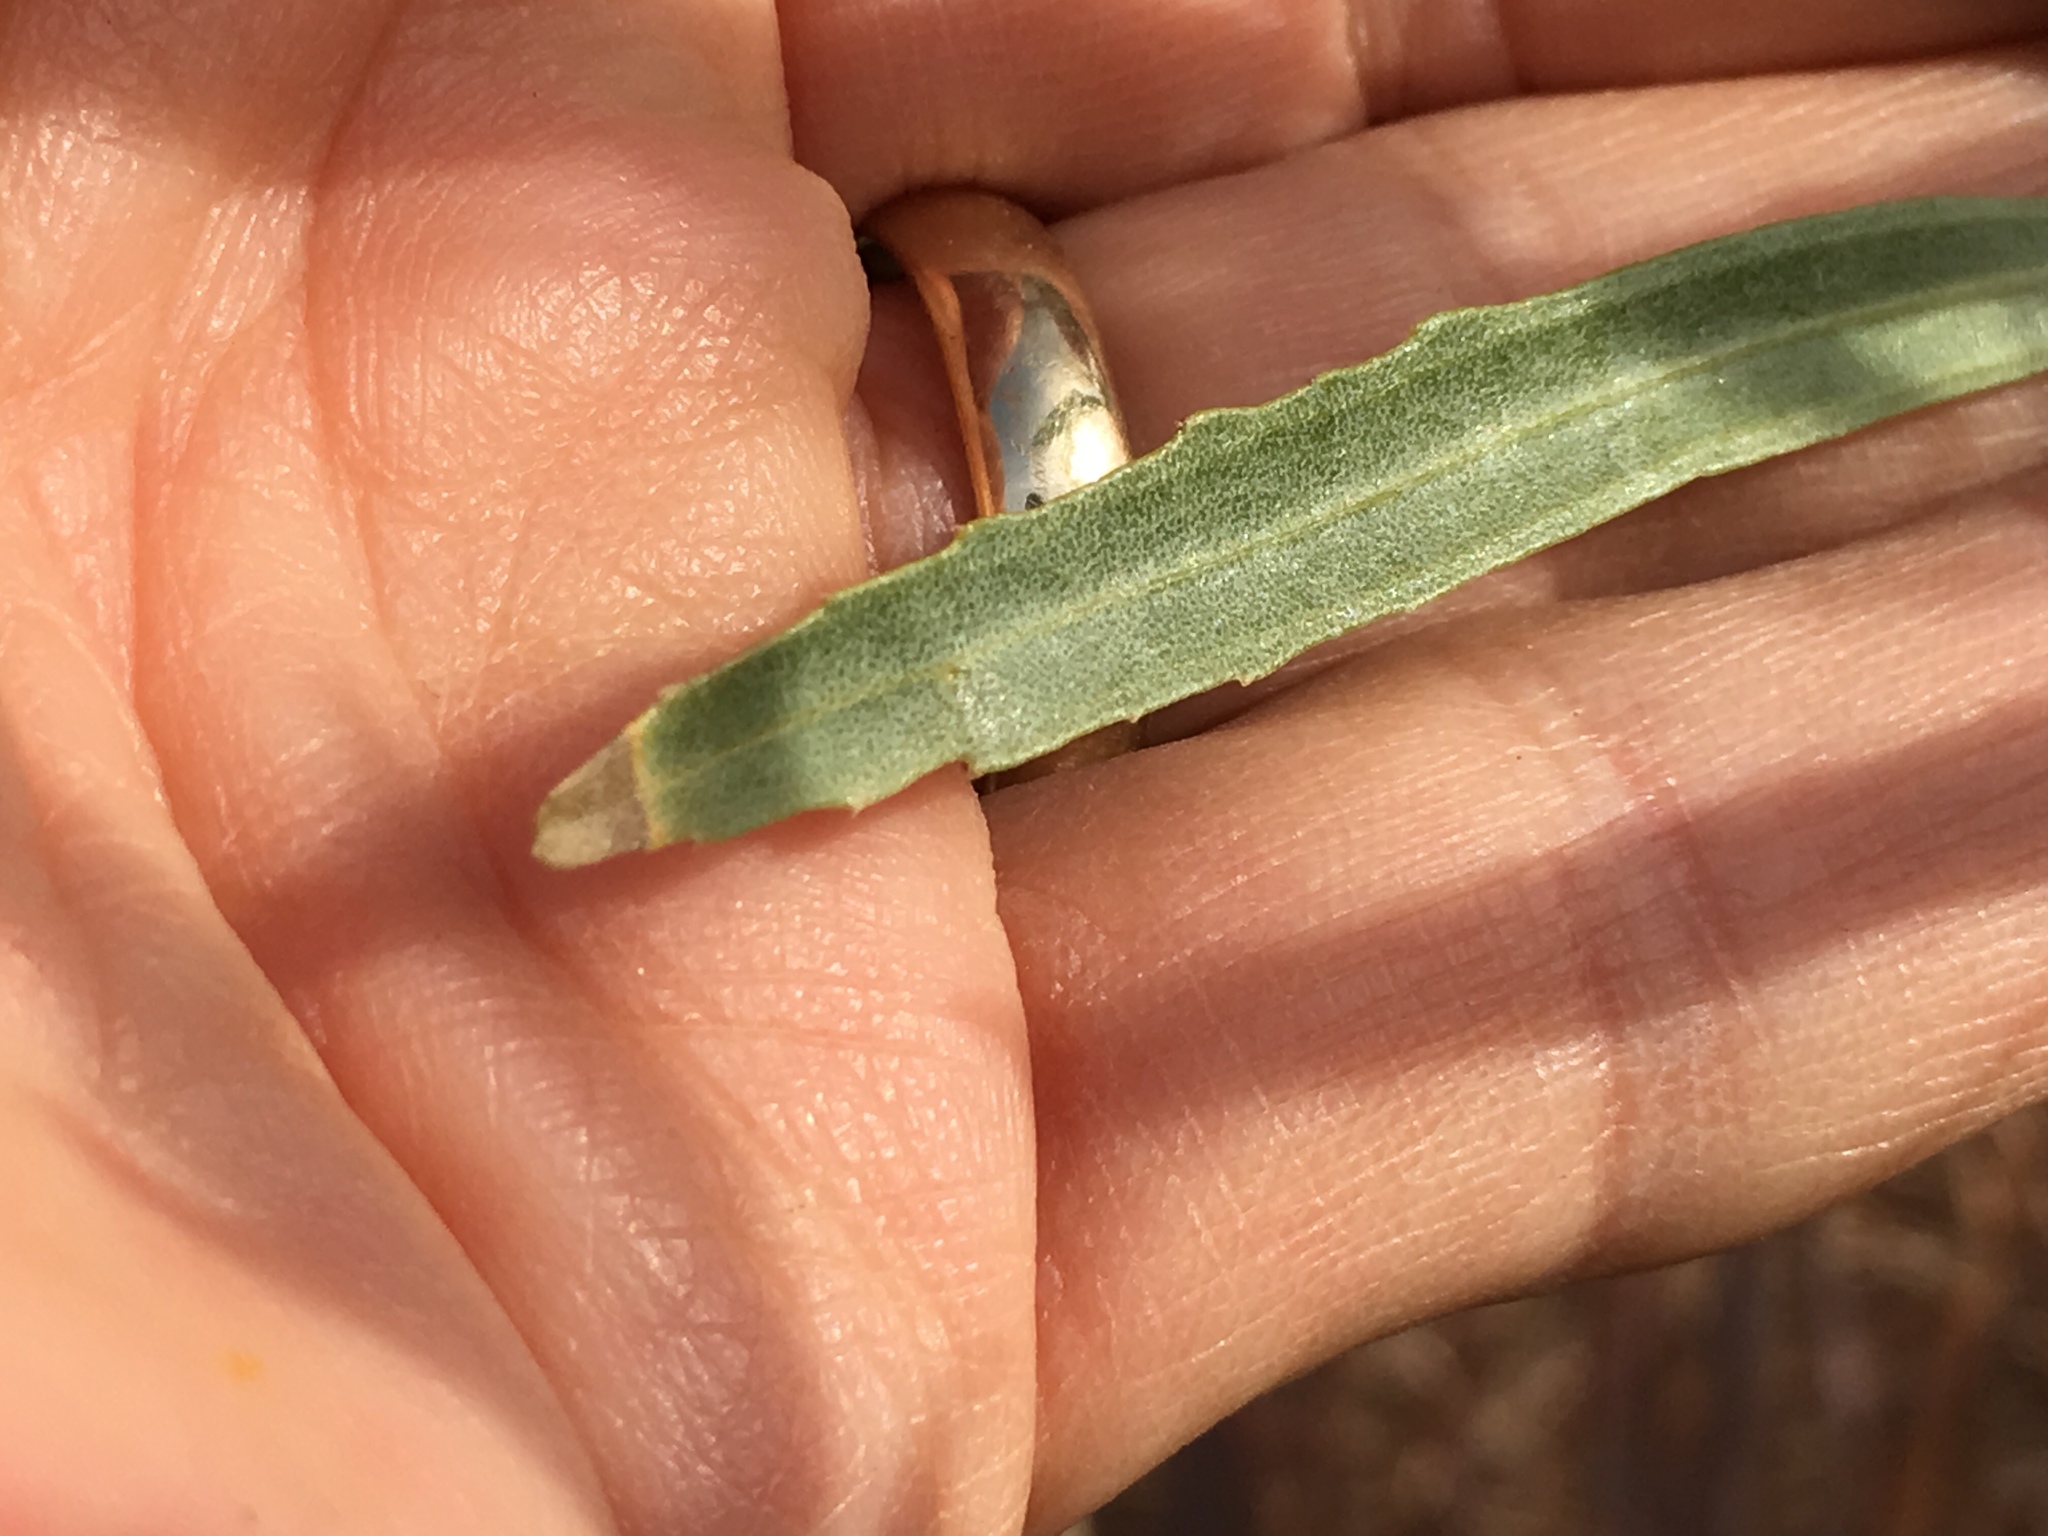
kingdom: Plantae
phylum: Tracheophyta
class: Magnoliopsida
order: Asterales
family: Asteraceae
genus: Baccharis
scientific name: Baccharis salicifolia
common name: Sticky baccharis
